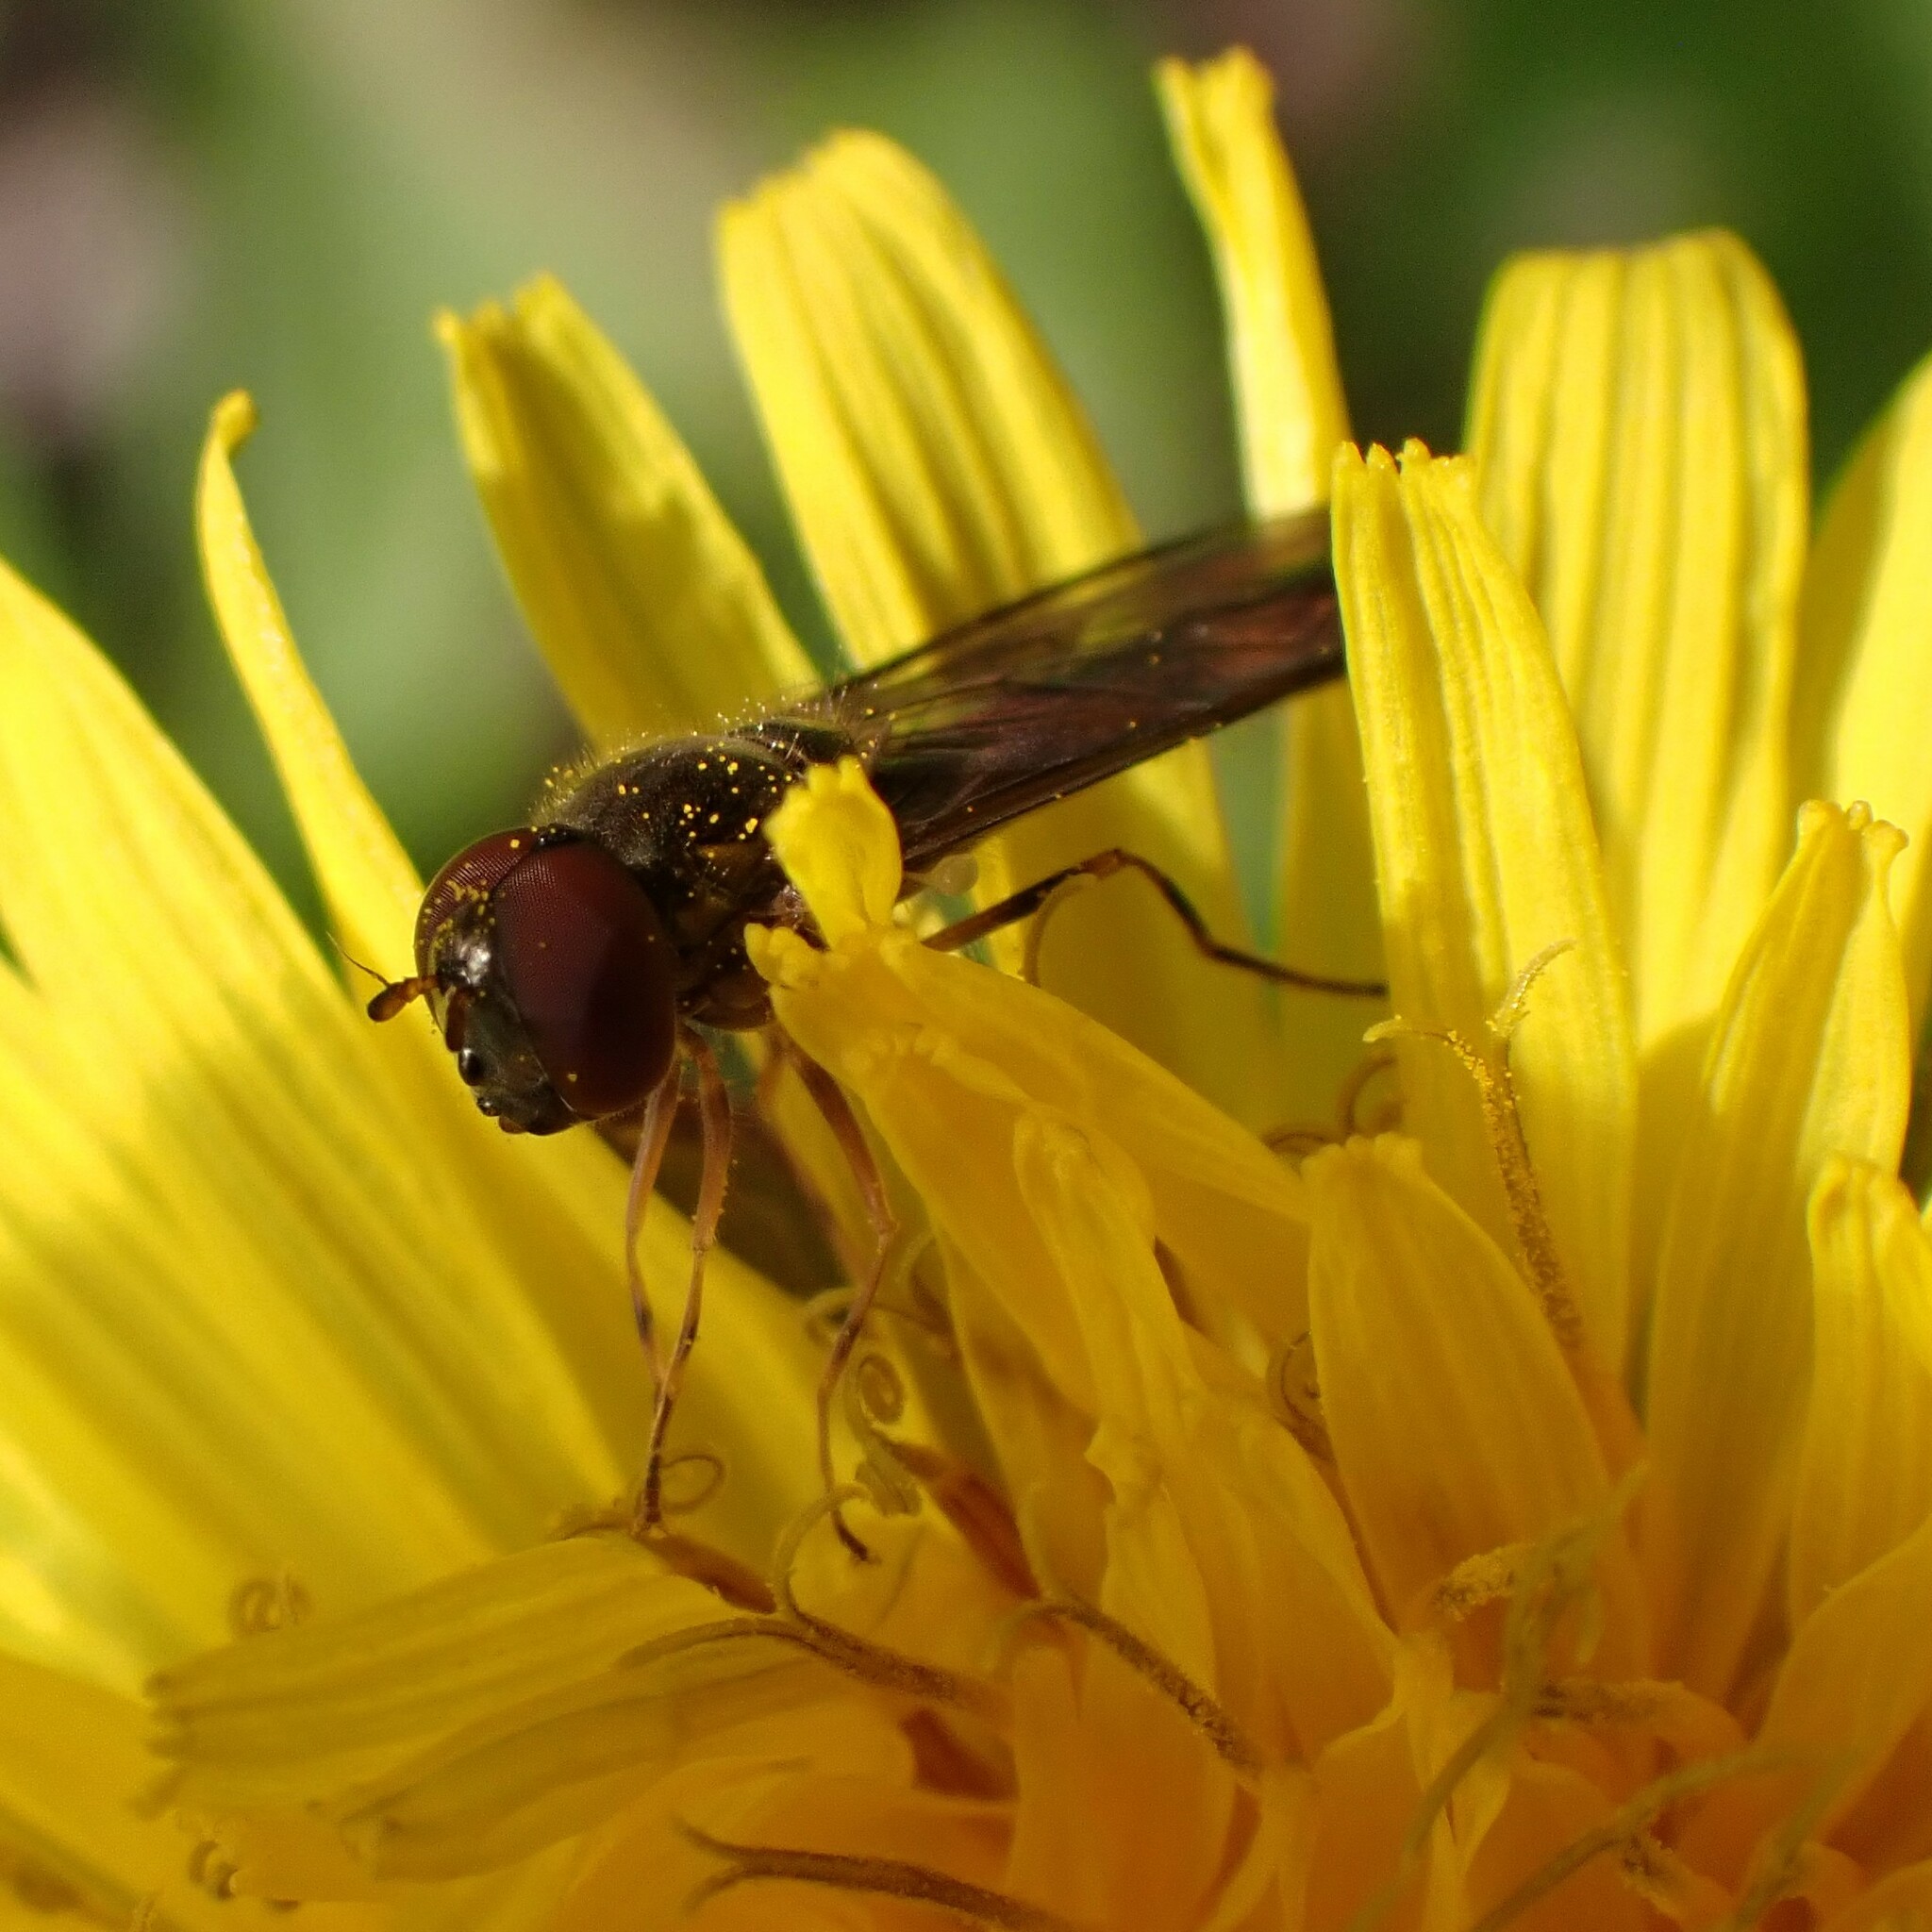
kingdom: Animalia
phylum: Arthropoda
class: Insecta
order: Diptera
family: Syrphidae
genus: Melanostoma
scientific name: Melanostoma mellina
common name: Hover fly
